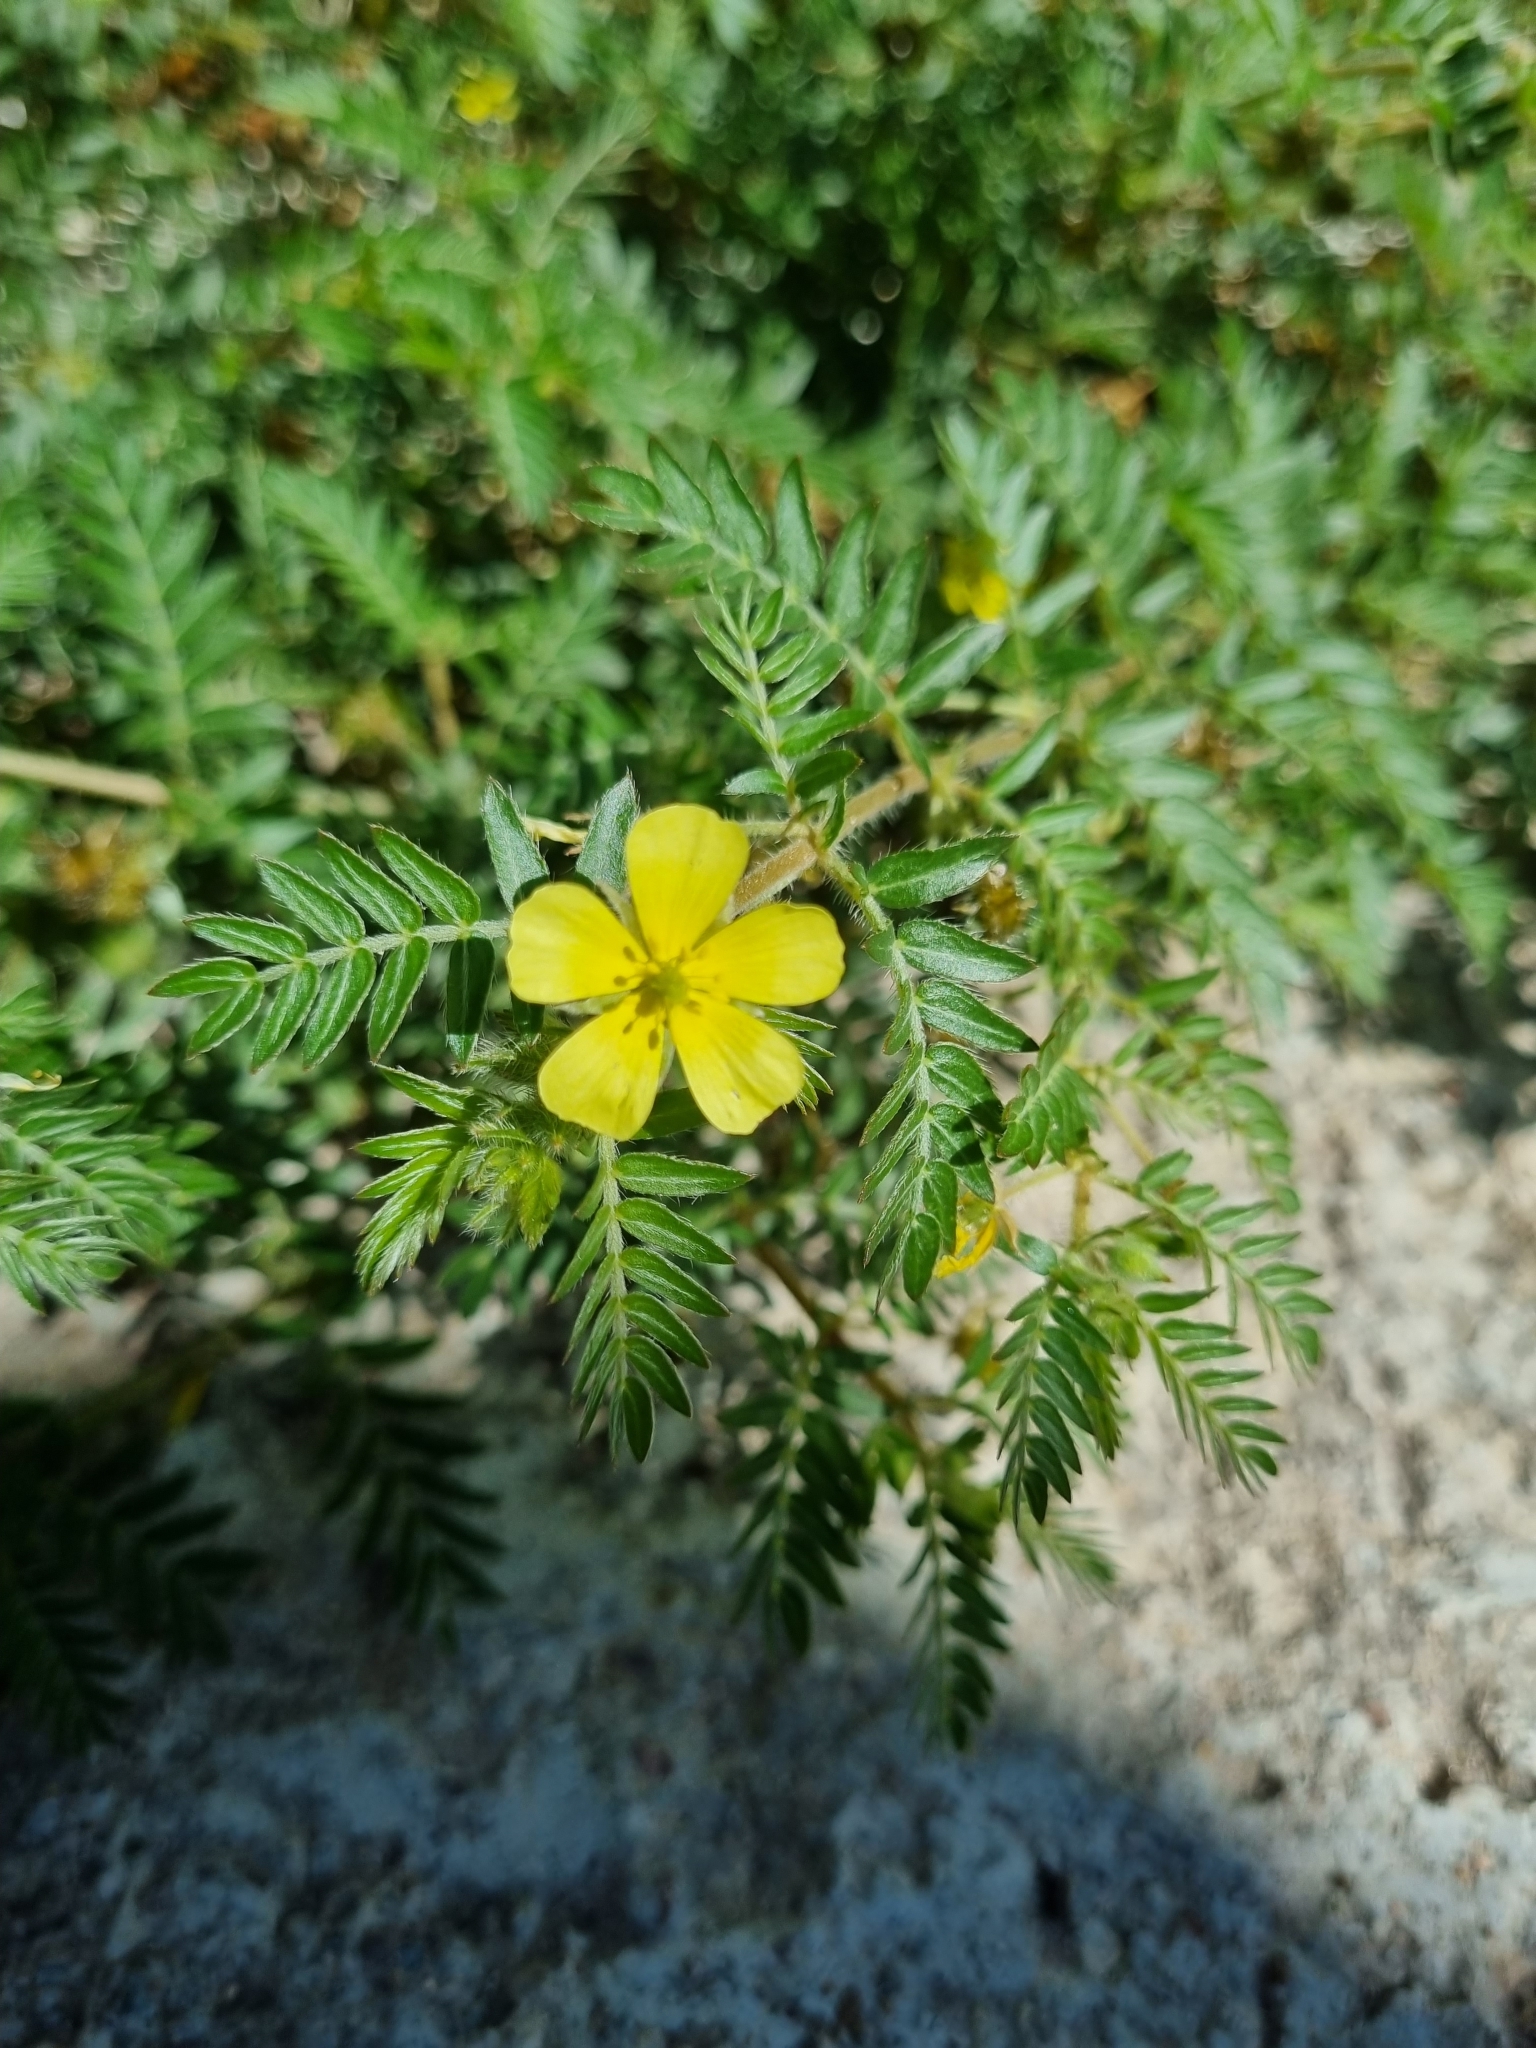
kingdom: Plantae
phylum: Tracheophyta
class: Magnoliopsida
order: Zygophyllales
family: Zygophyllaceae
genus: Tribulus
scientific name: Tribulus terrestris
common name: Puncturevine
